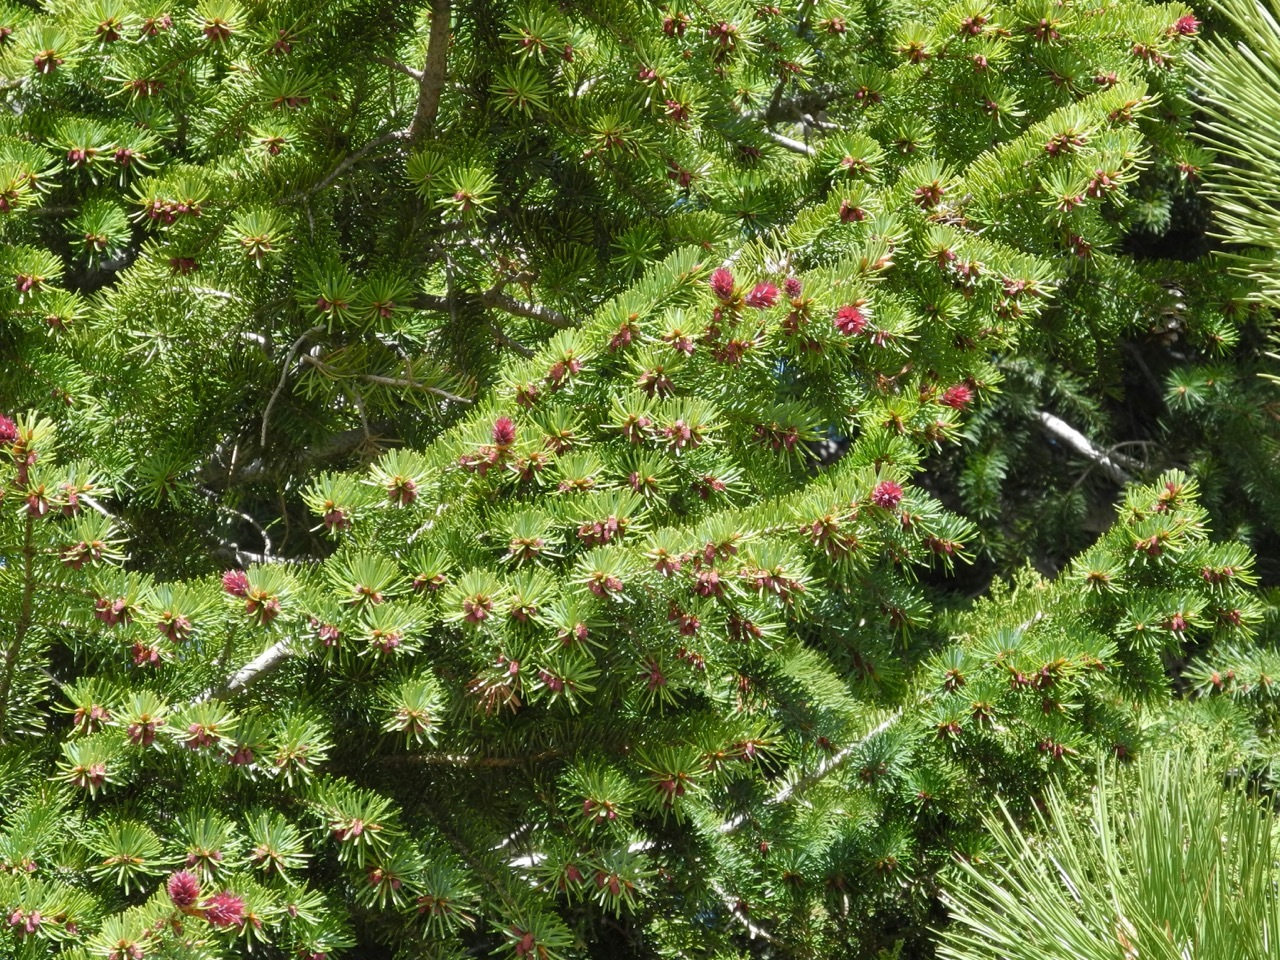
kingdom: Plantae
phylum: Tracheophyta
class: Pinopsida
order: Pinales
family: Pinaceae
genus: Pseudotsuga
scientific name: Pseudotsuga menziesii
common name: Douglas fir
